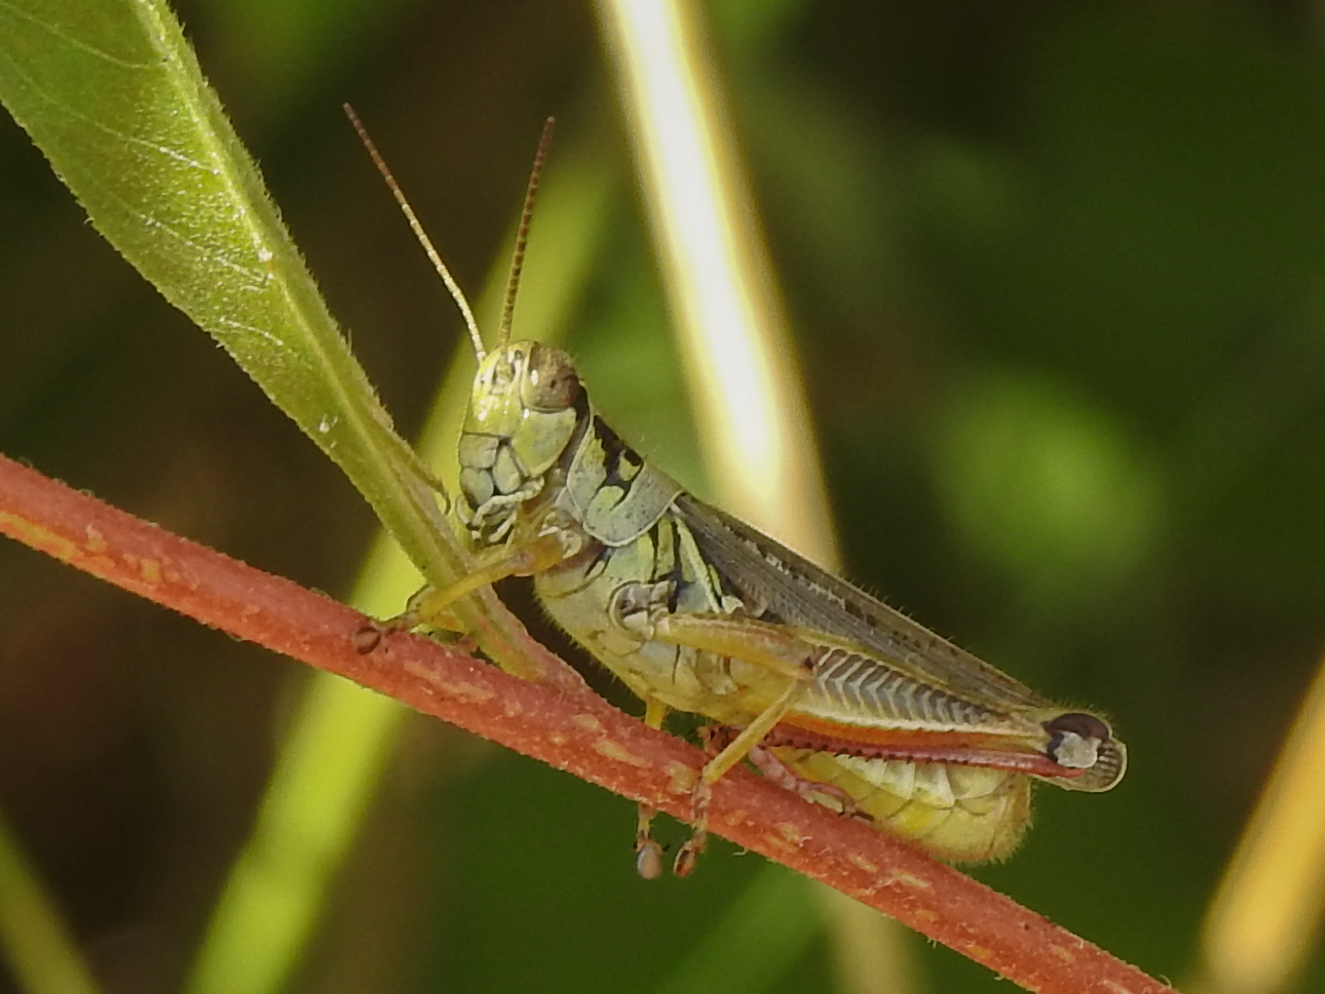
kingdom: Animalia
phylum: Arthropoda
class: Insecta
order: Orthoptera
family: Acrididae
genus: Melanoplus
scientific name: Melanoplus femurrubrum
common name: Red-legged grasshopper
